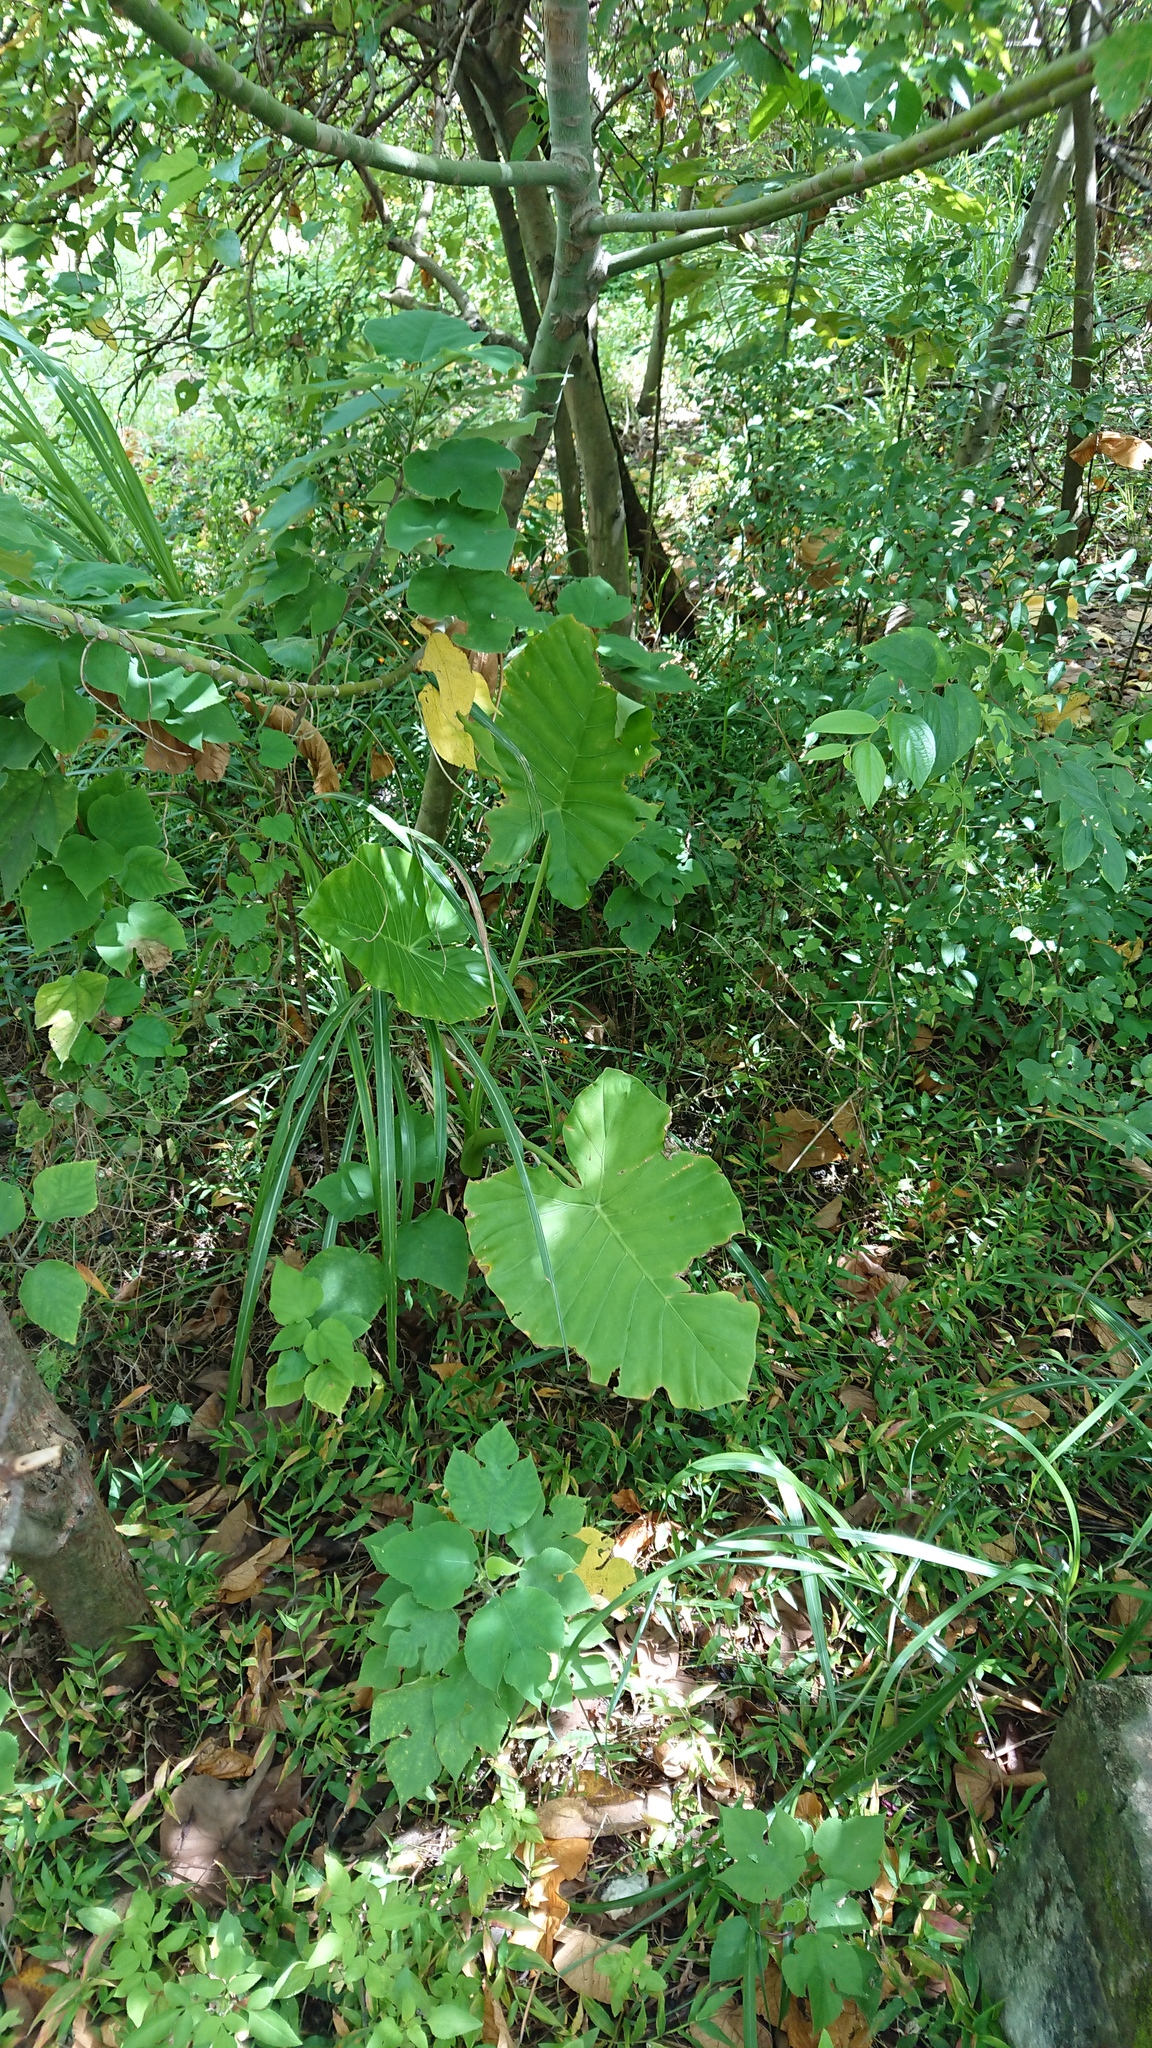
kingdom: Plantae
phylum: Tracheophyta
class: Liliopsida
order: Alismatales
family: Araceae
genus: Alocasia
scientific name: Alocasia odora
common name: Asian taro
